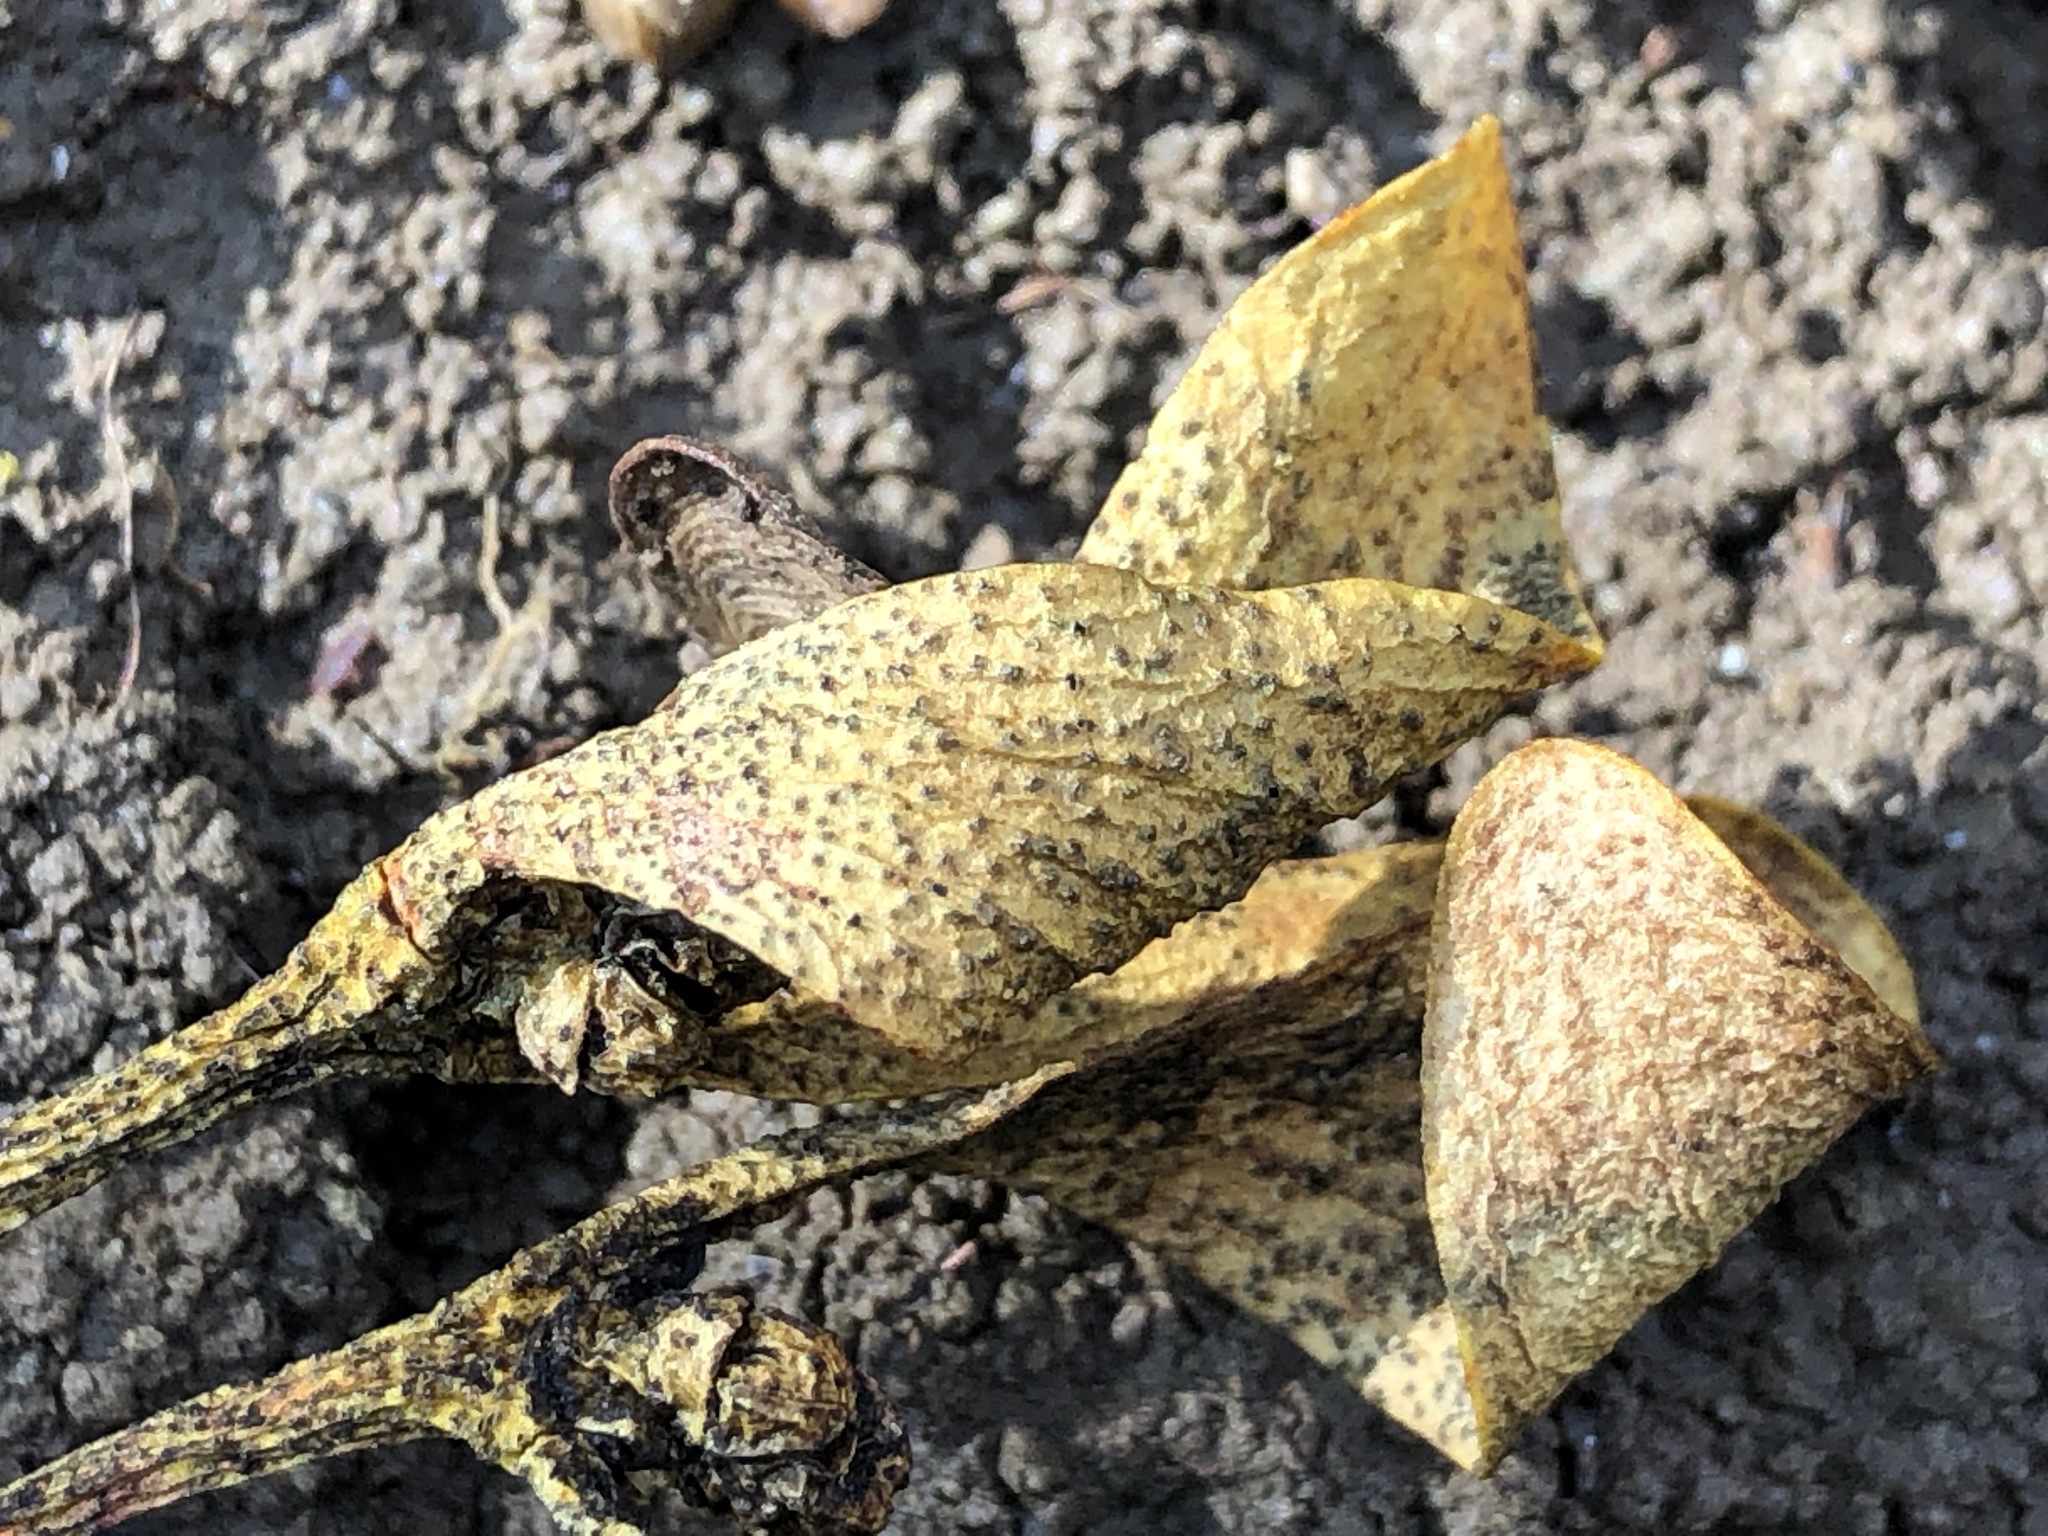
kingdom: Fungi
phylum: Ascomycota
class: Dothideomycetes
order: Botryosphaeriales
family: Botryosphaeriaceae
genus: Botryosphaeria
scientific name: Botryosphaeria visci
